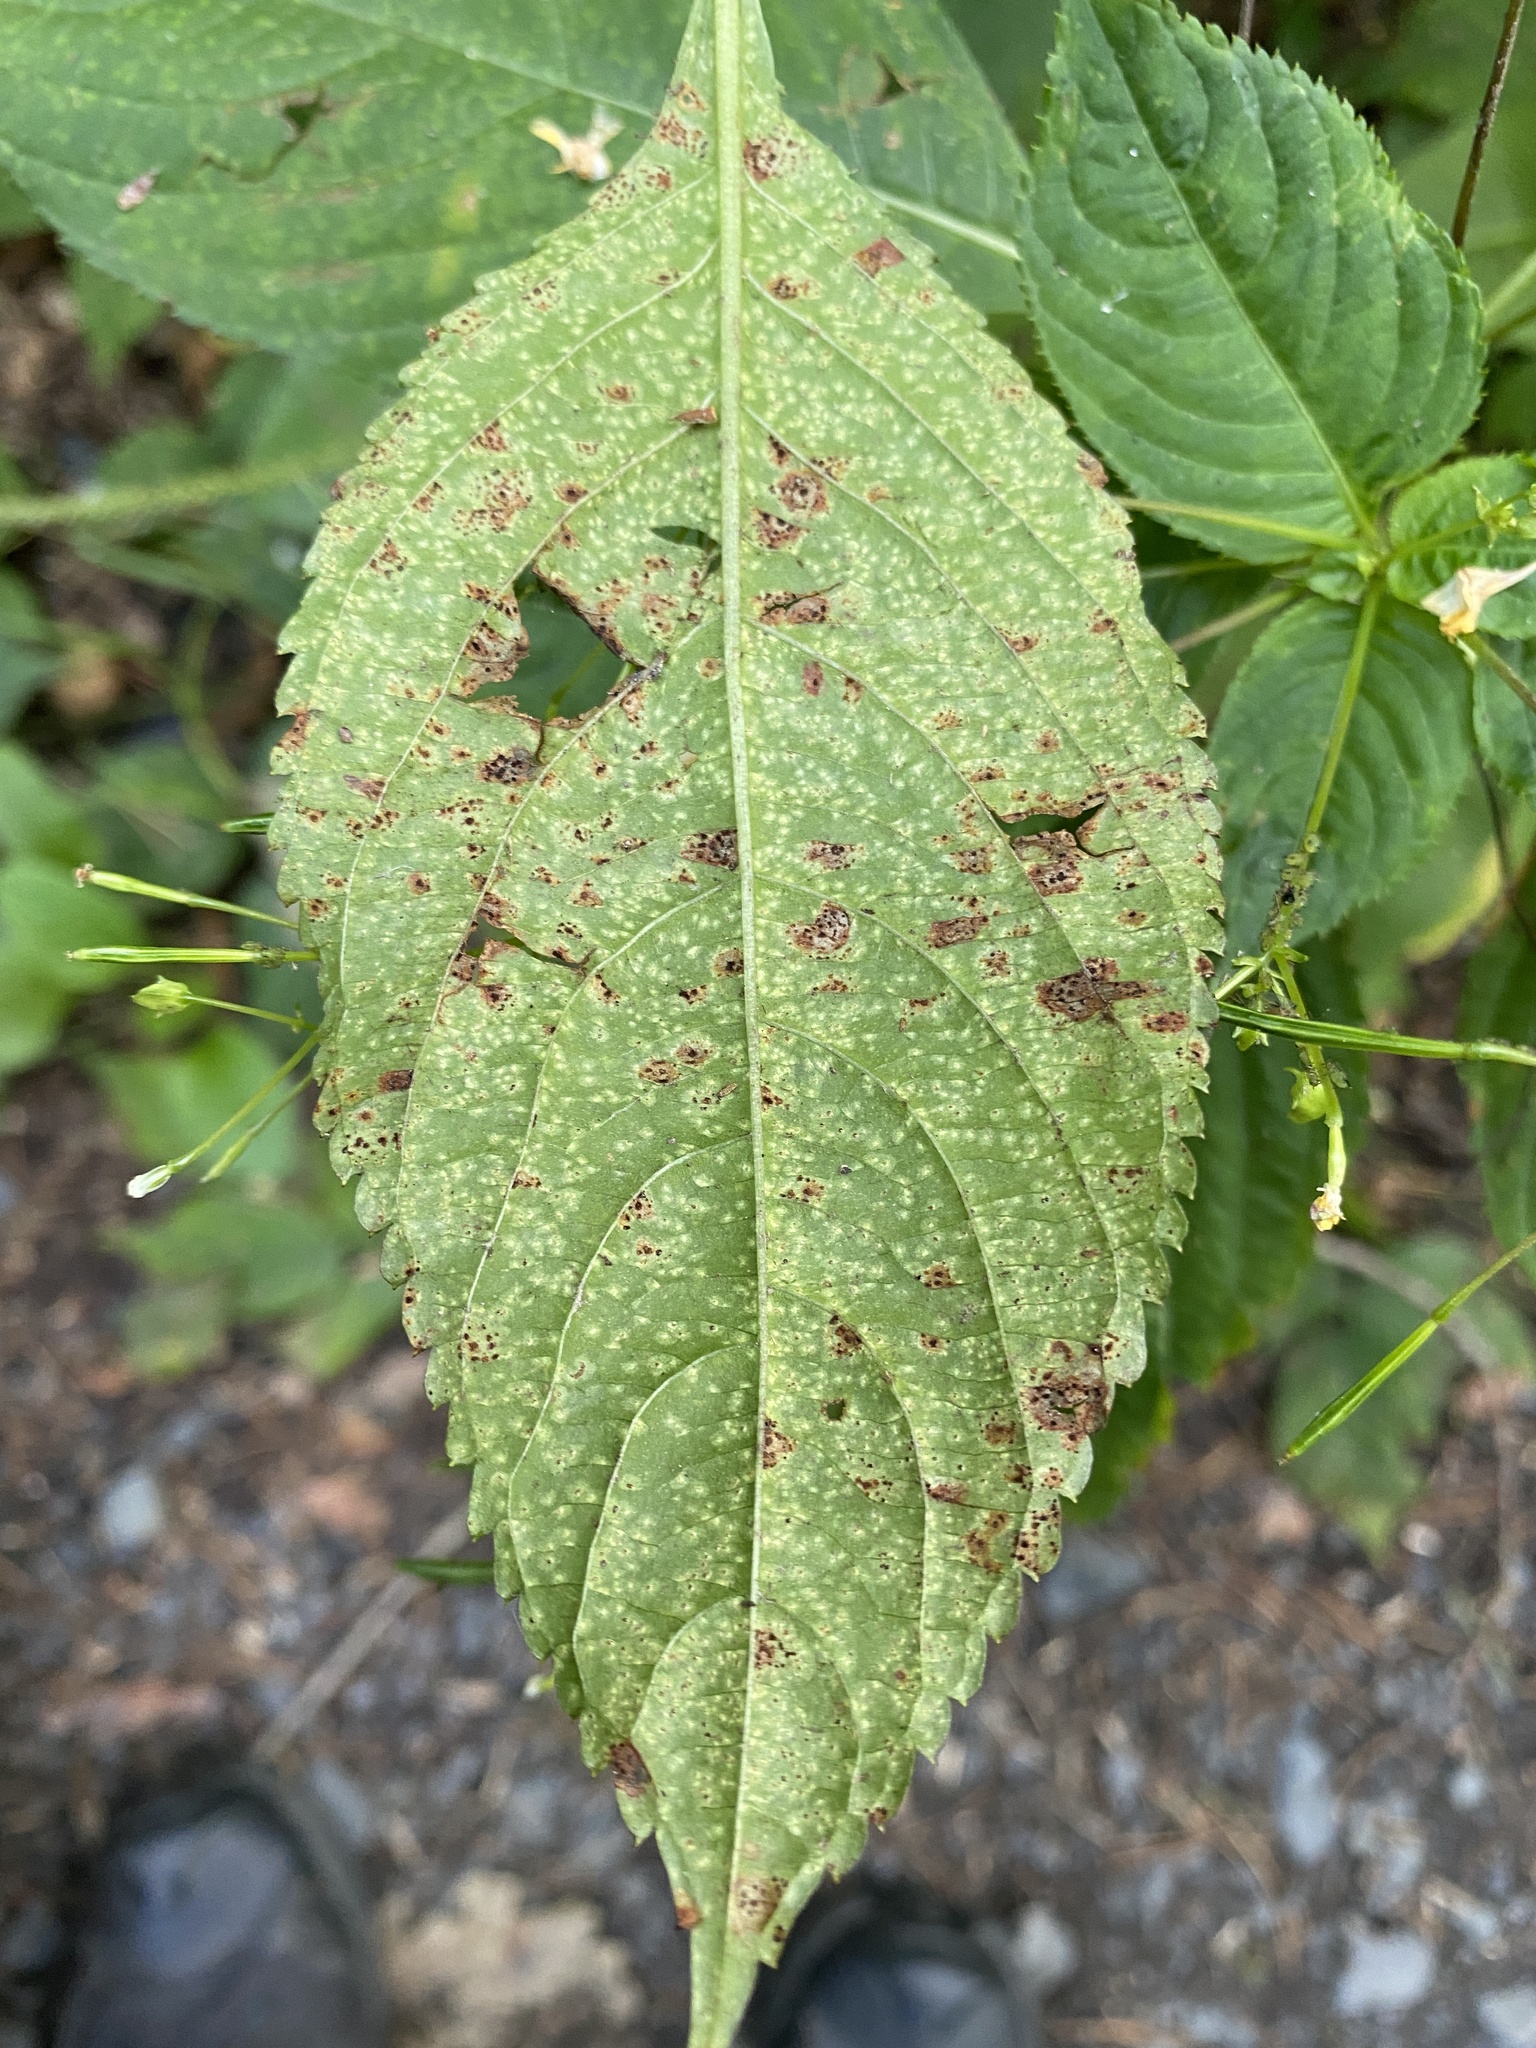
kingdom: Fungi
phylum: Basidiomycota
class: Pucciniomycetes
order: Pucciniales
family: Pucciniaceae
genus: Puccinia
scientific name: Puccinia komarovii
